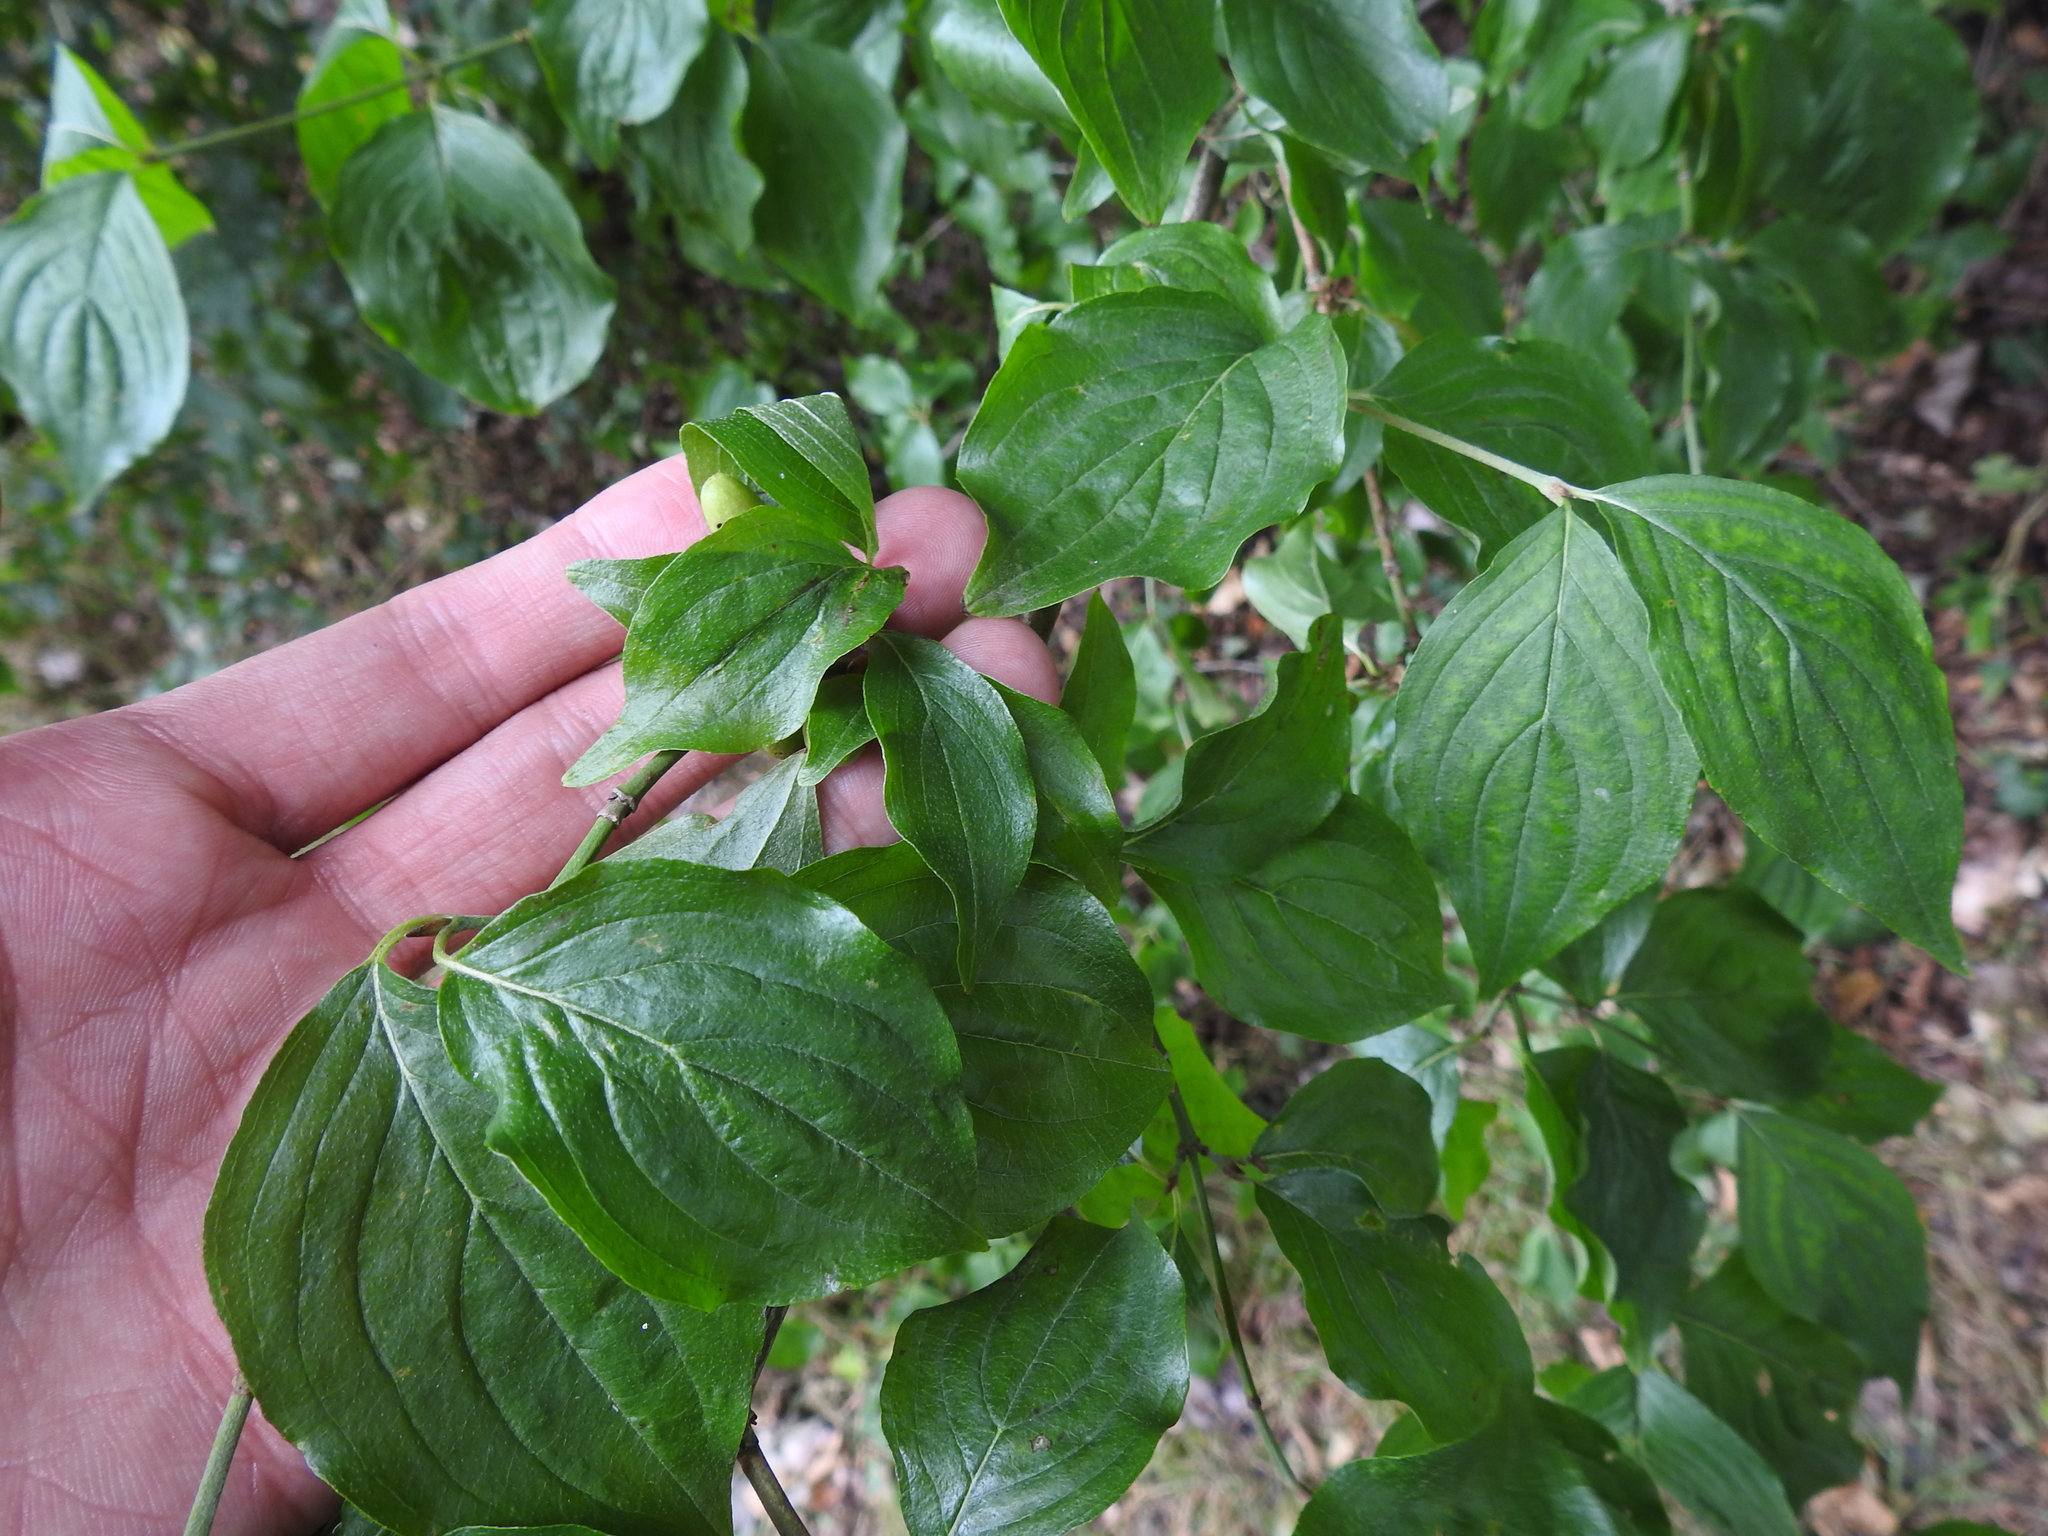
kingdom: Plantae
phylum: Tracheophyta
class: Magnoliopsida
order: Cornales
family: Cornaceae
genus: Cornus
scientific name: Cornus mas
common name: Cornelian-cherry
